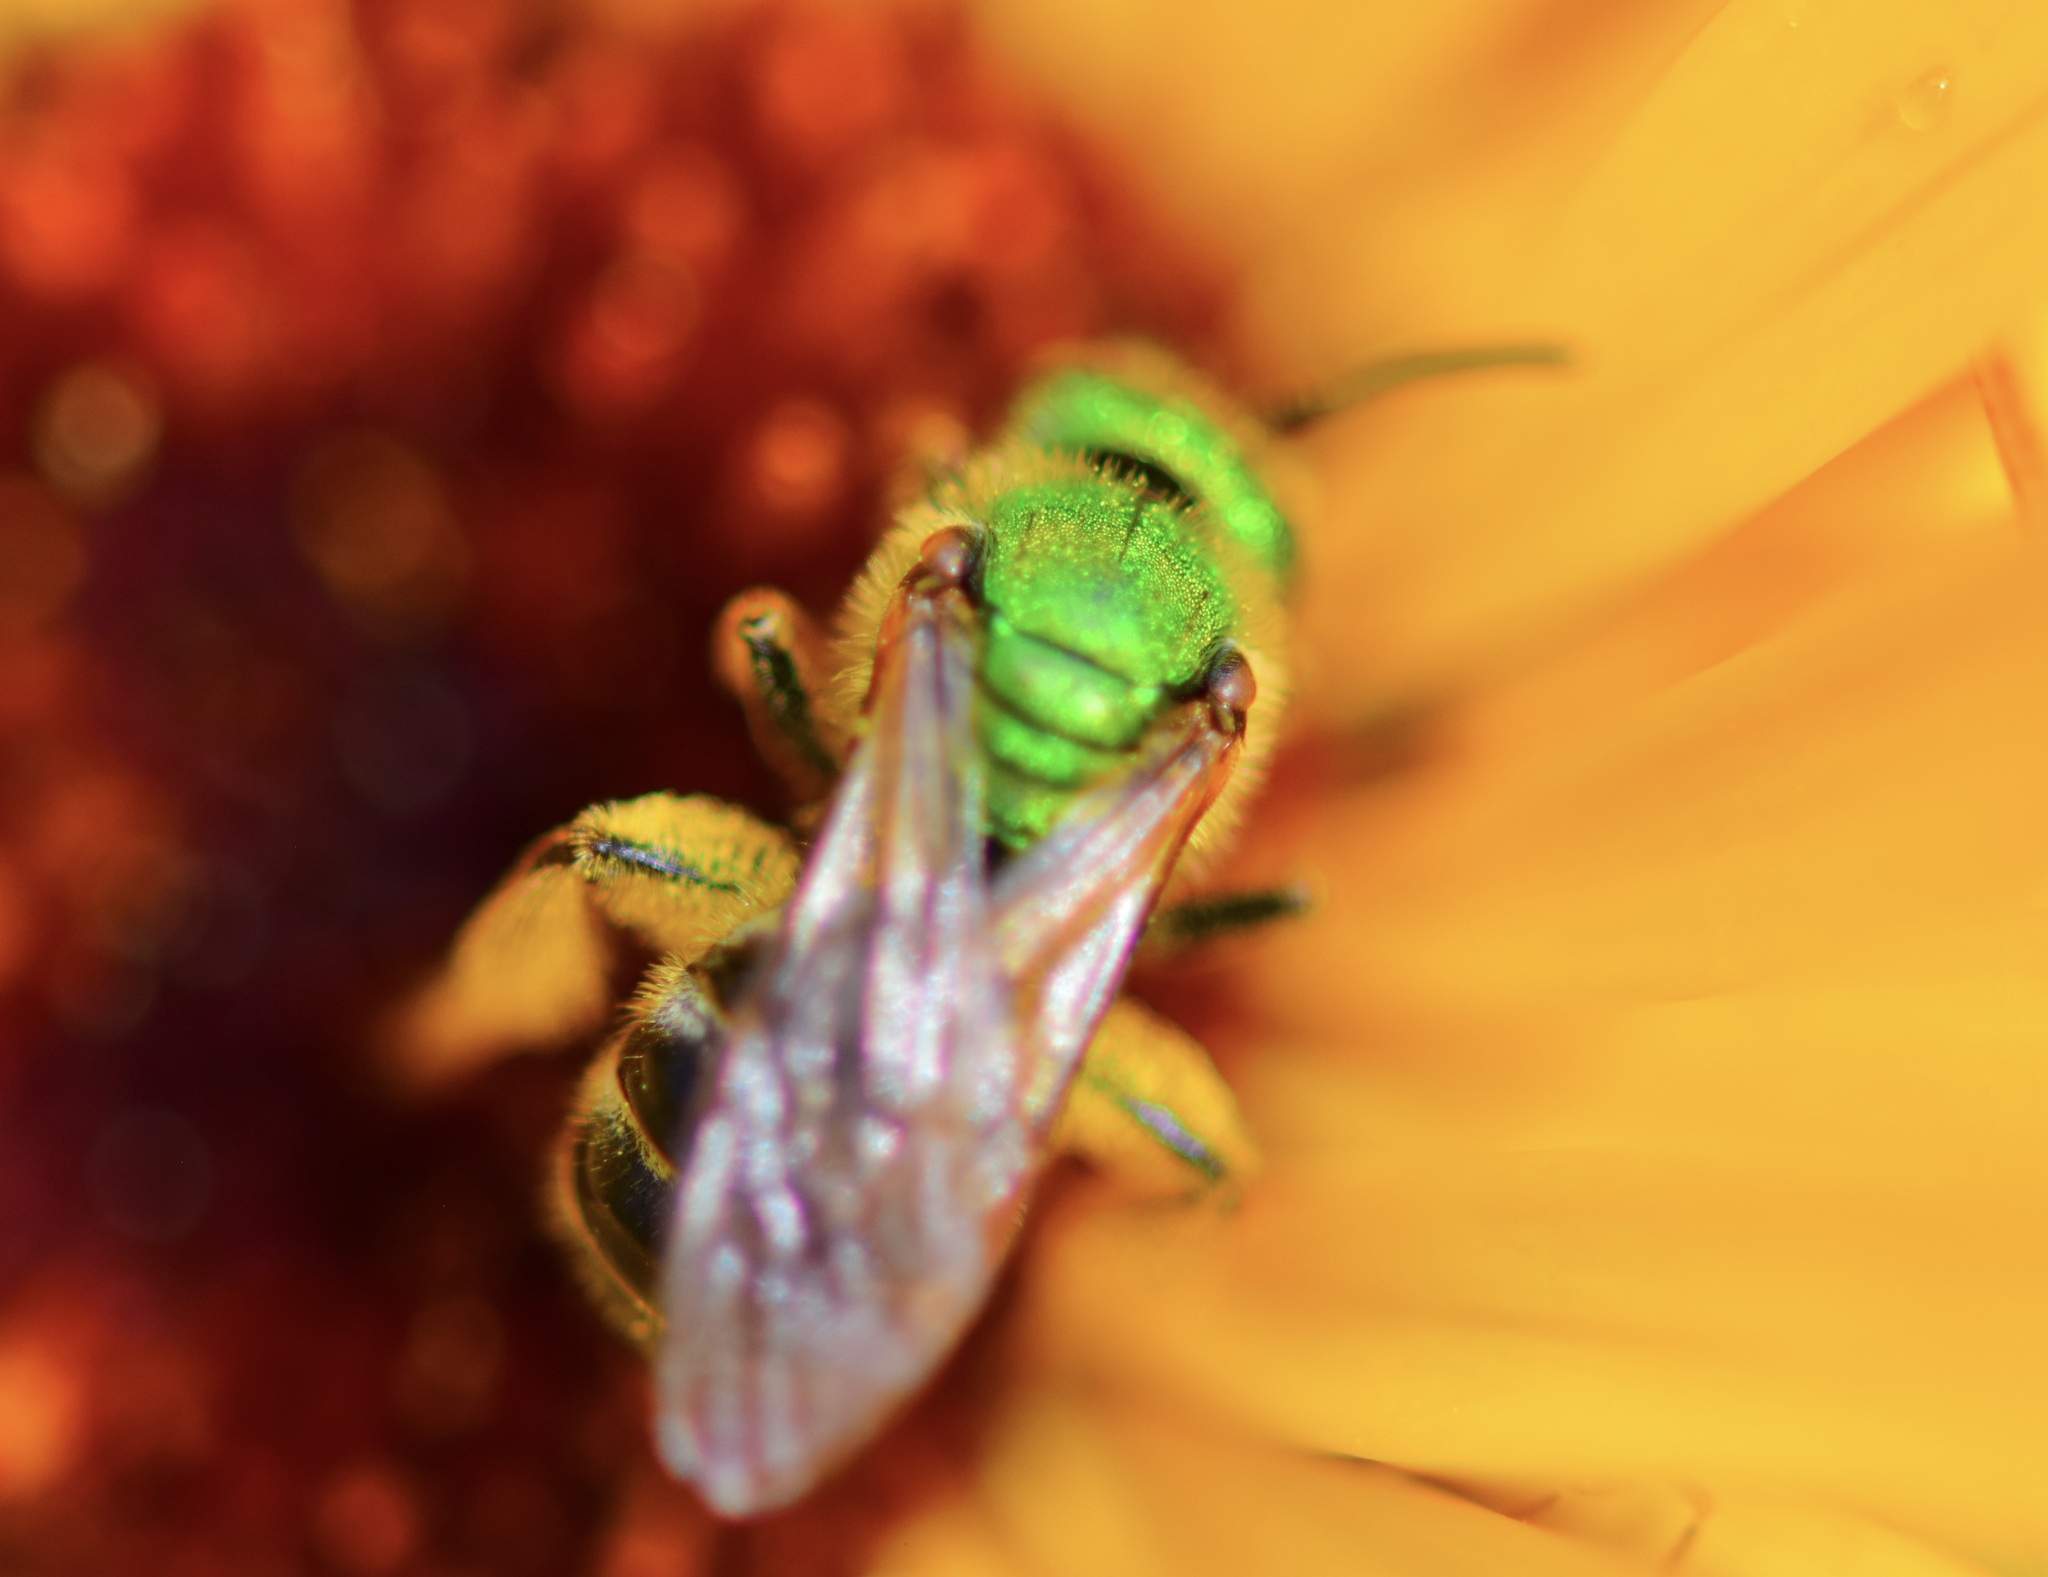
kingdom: Animalia
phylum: Arthropoda
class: Insecta
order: Hymenoptera
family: Halictidae
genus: Agapostemon
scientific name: Agapostemon virescens
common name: Bicolored striped sweat bee
